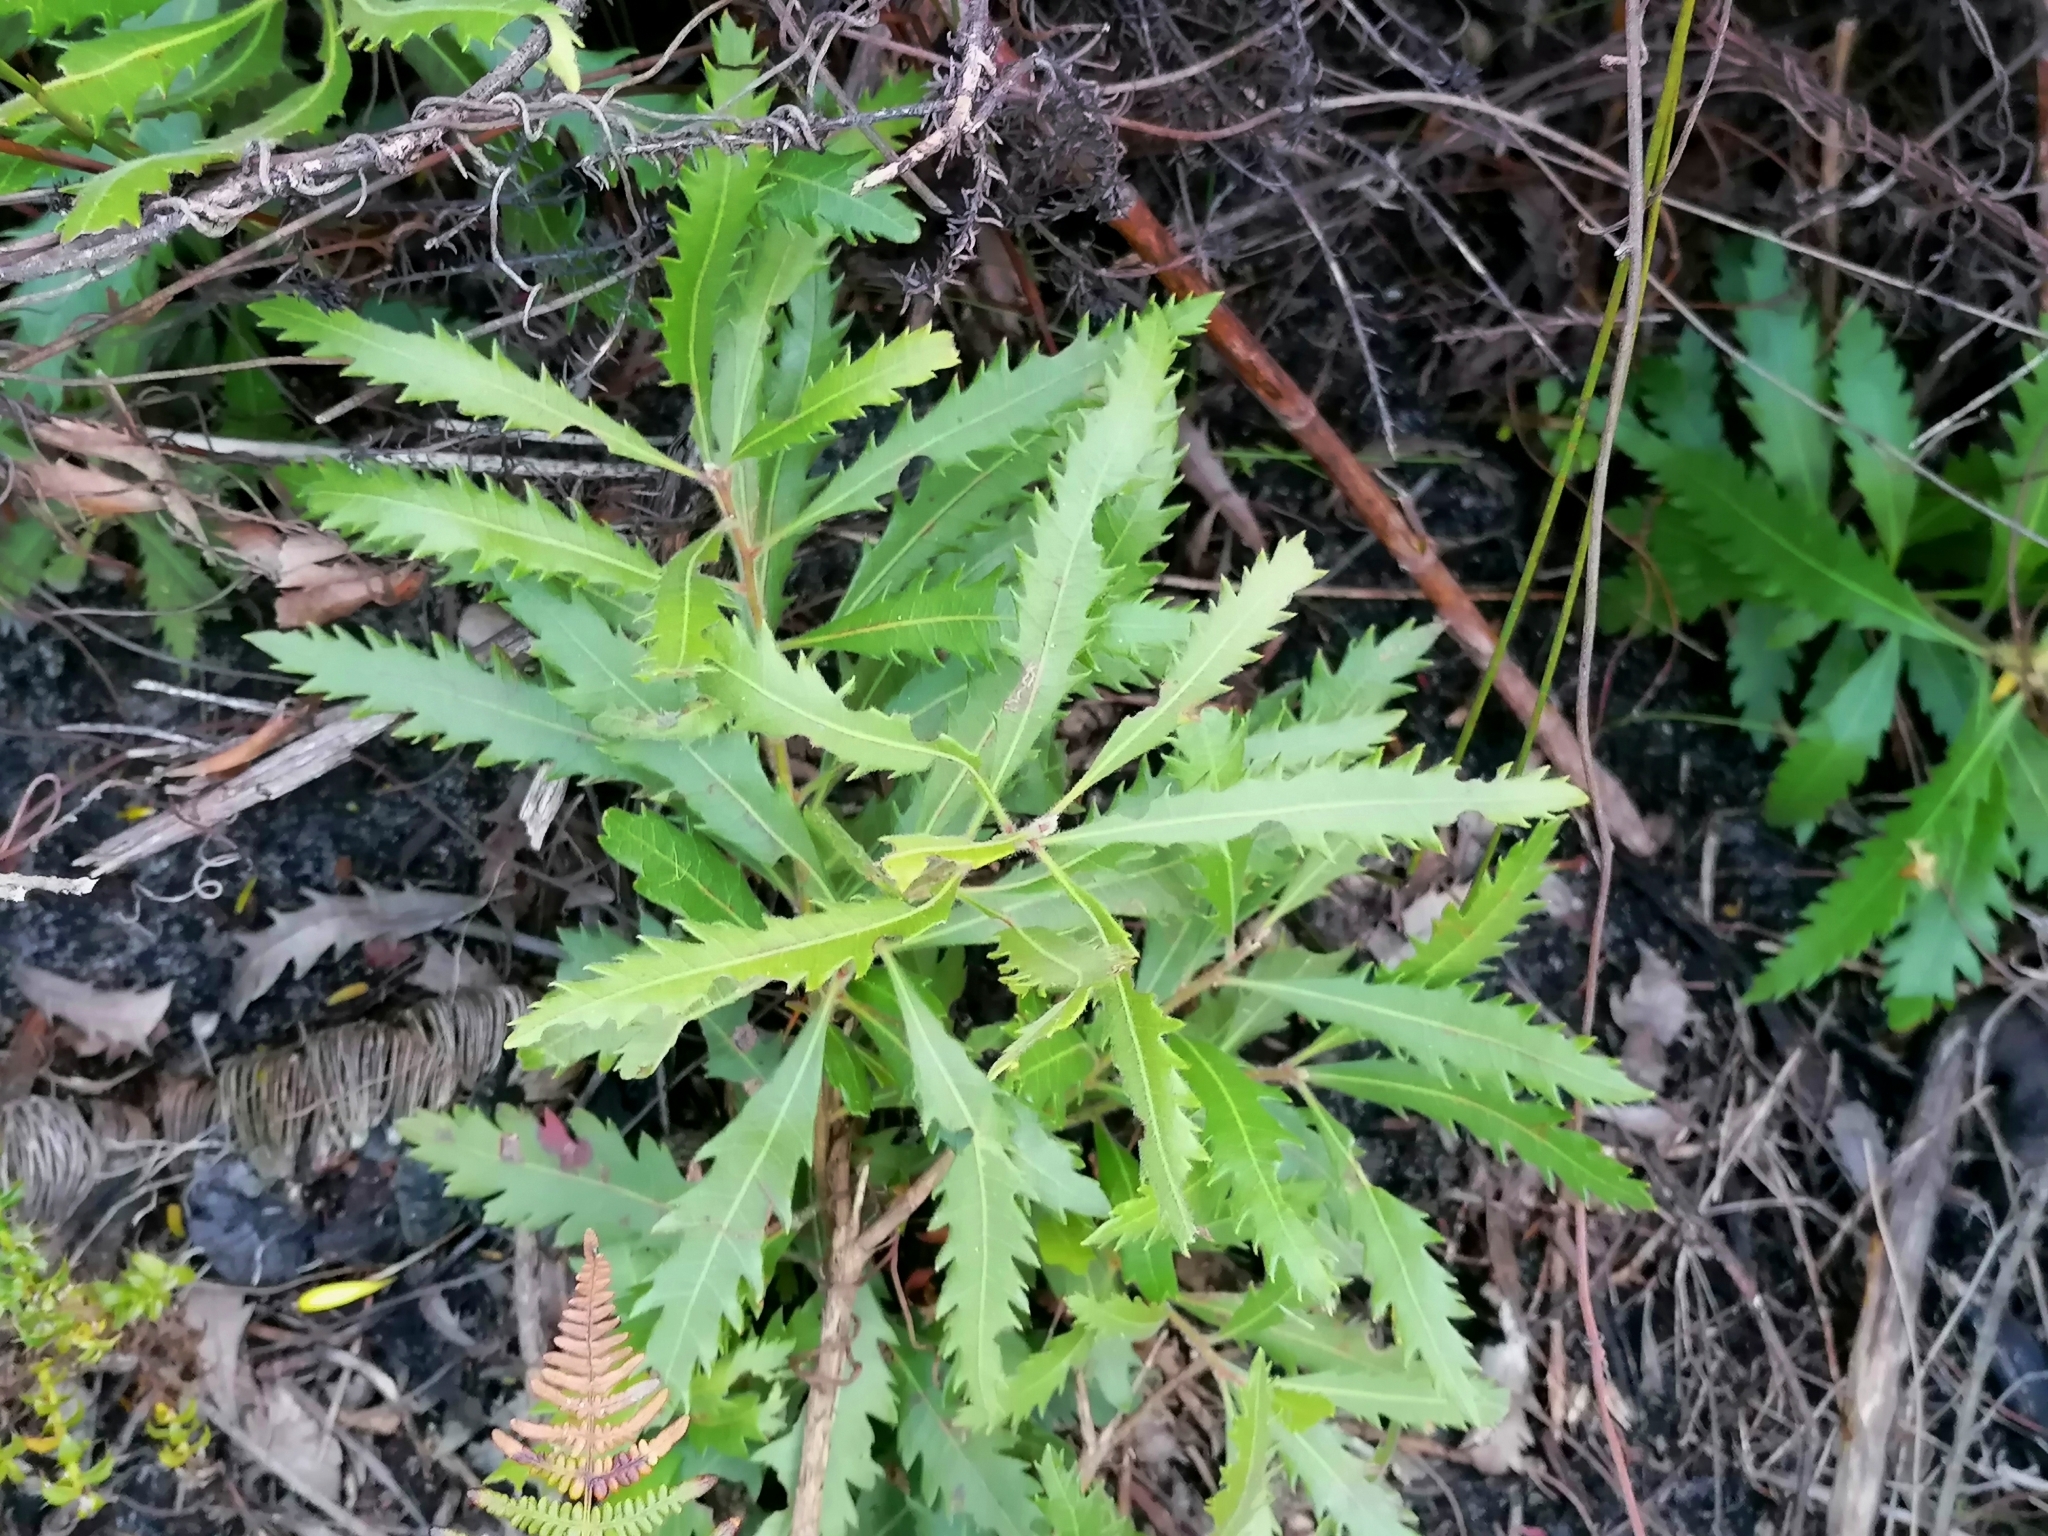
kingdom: Plantae
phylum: Tracheophyta
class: Magnoliopsida
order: Asterales
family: Asteraceae
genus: Nidorella
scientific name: Nidorella ivifolia
